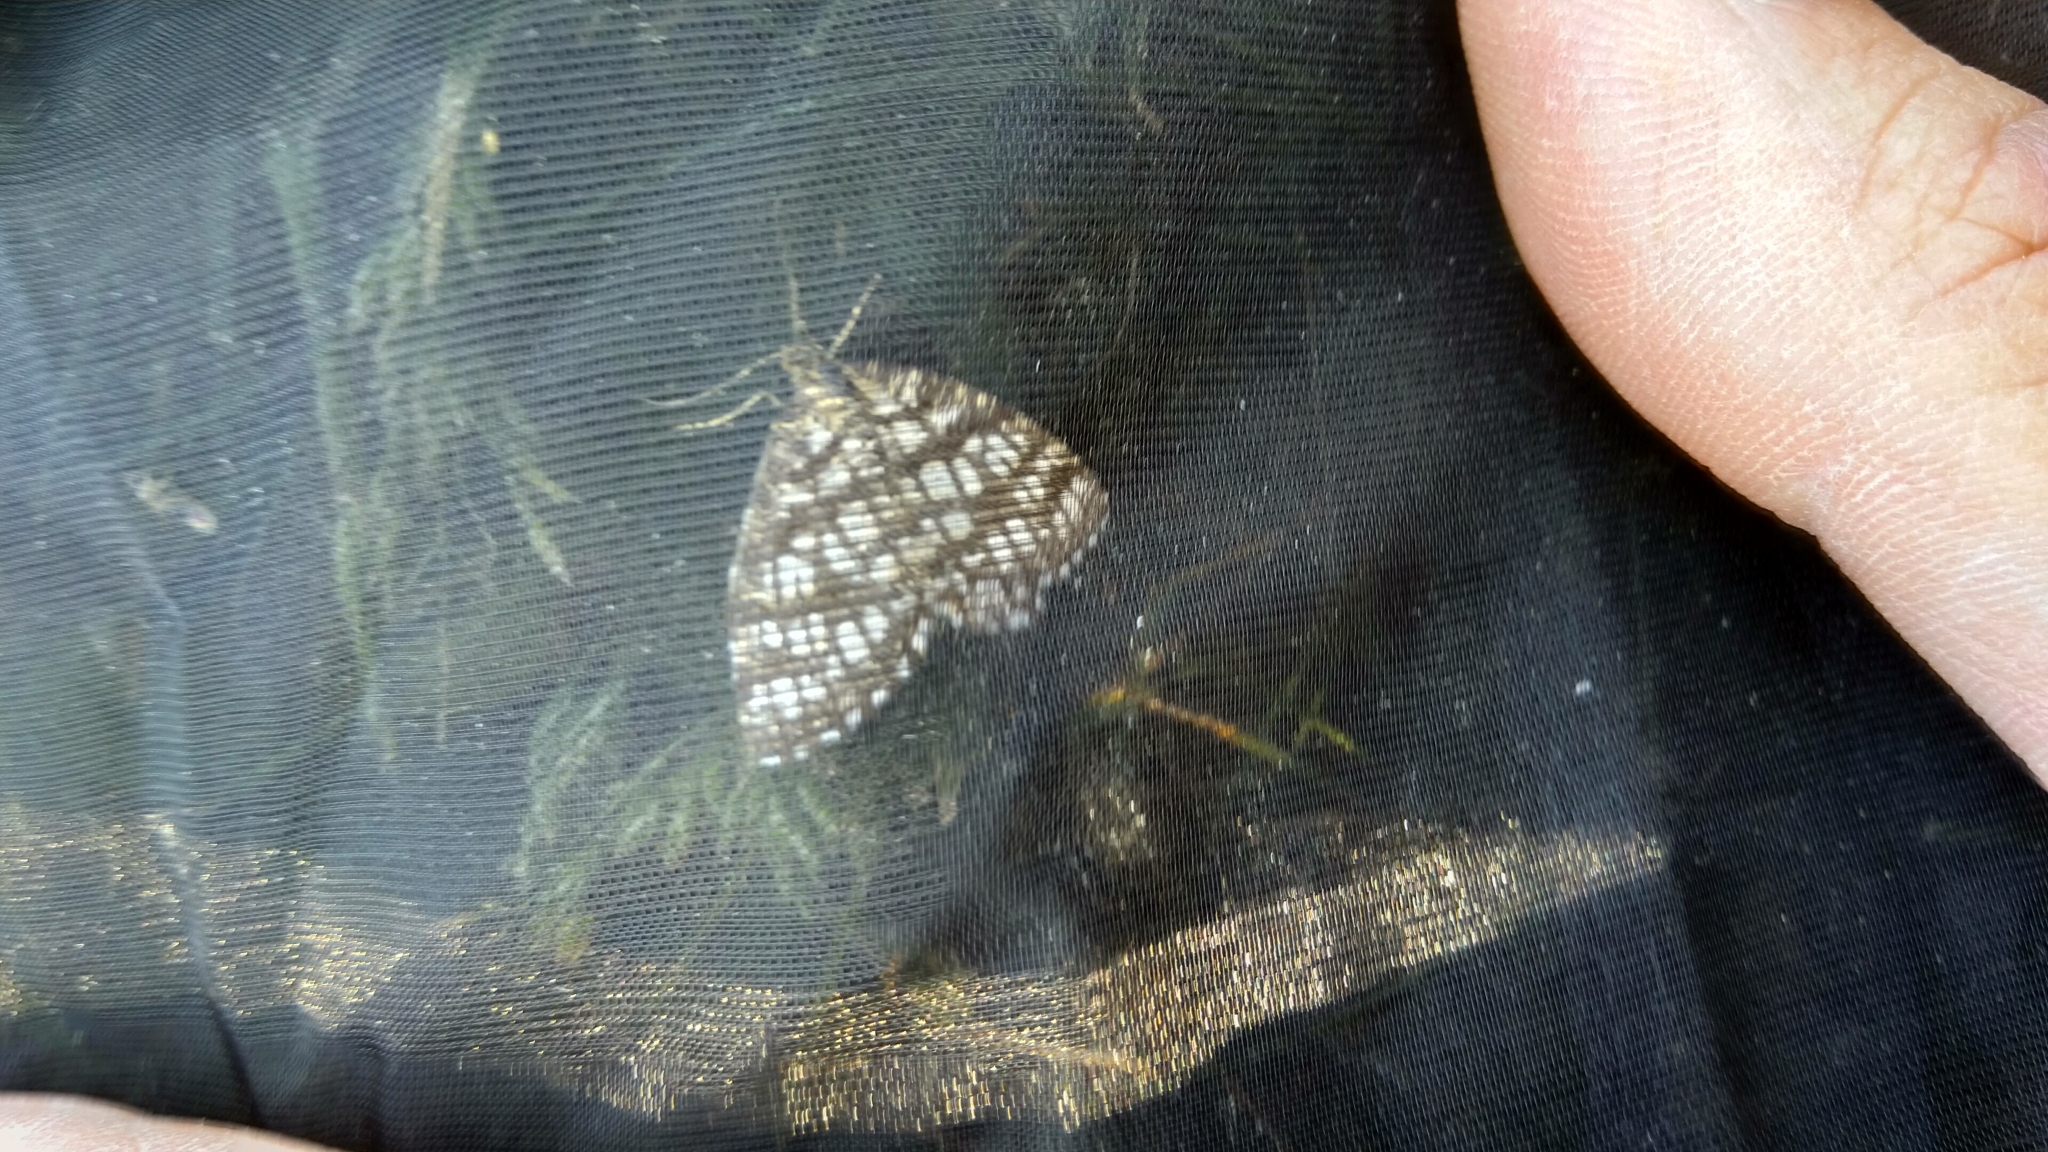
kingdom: Animalia
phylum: Arthropoda
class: Insecta
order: Lepidoptera
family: Geometridae
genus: Chiasmia
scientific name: Chiasmia clathrata
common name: Latticed heath
